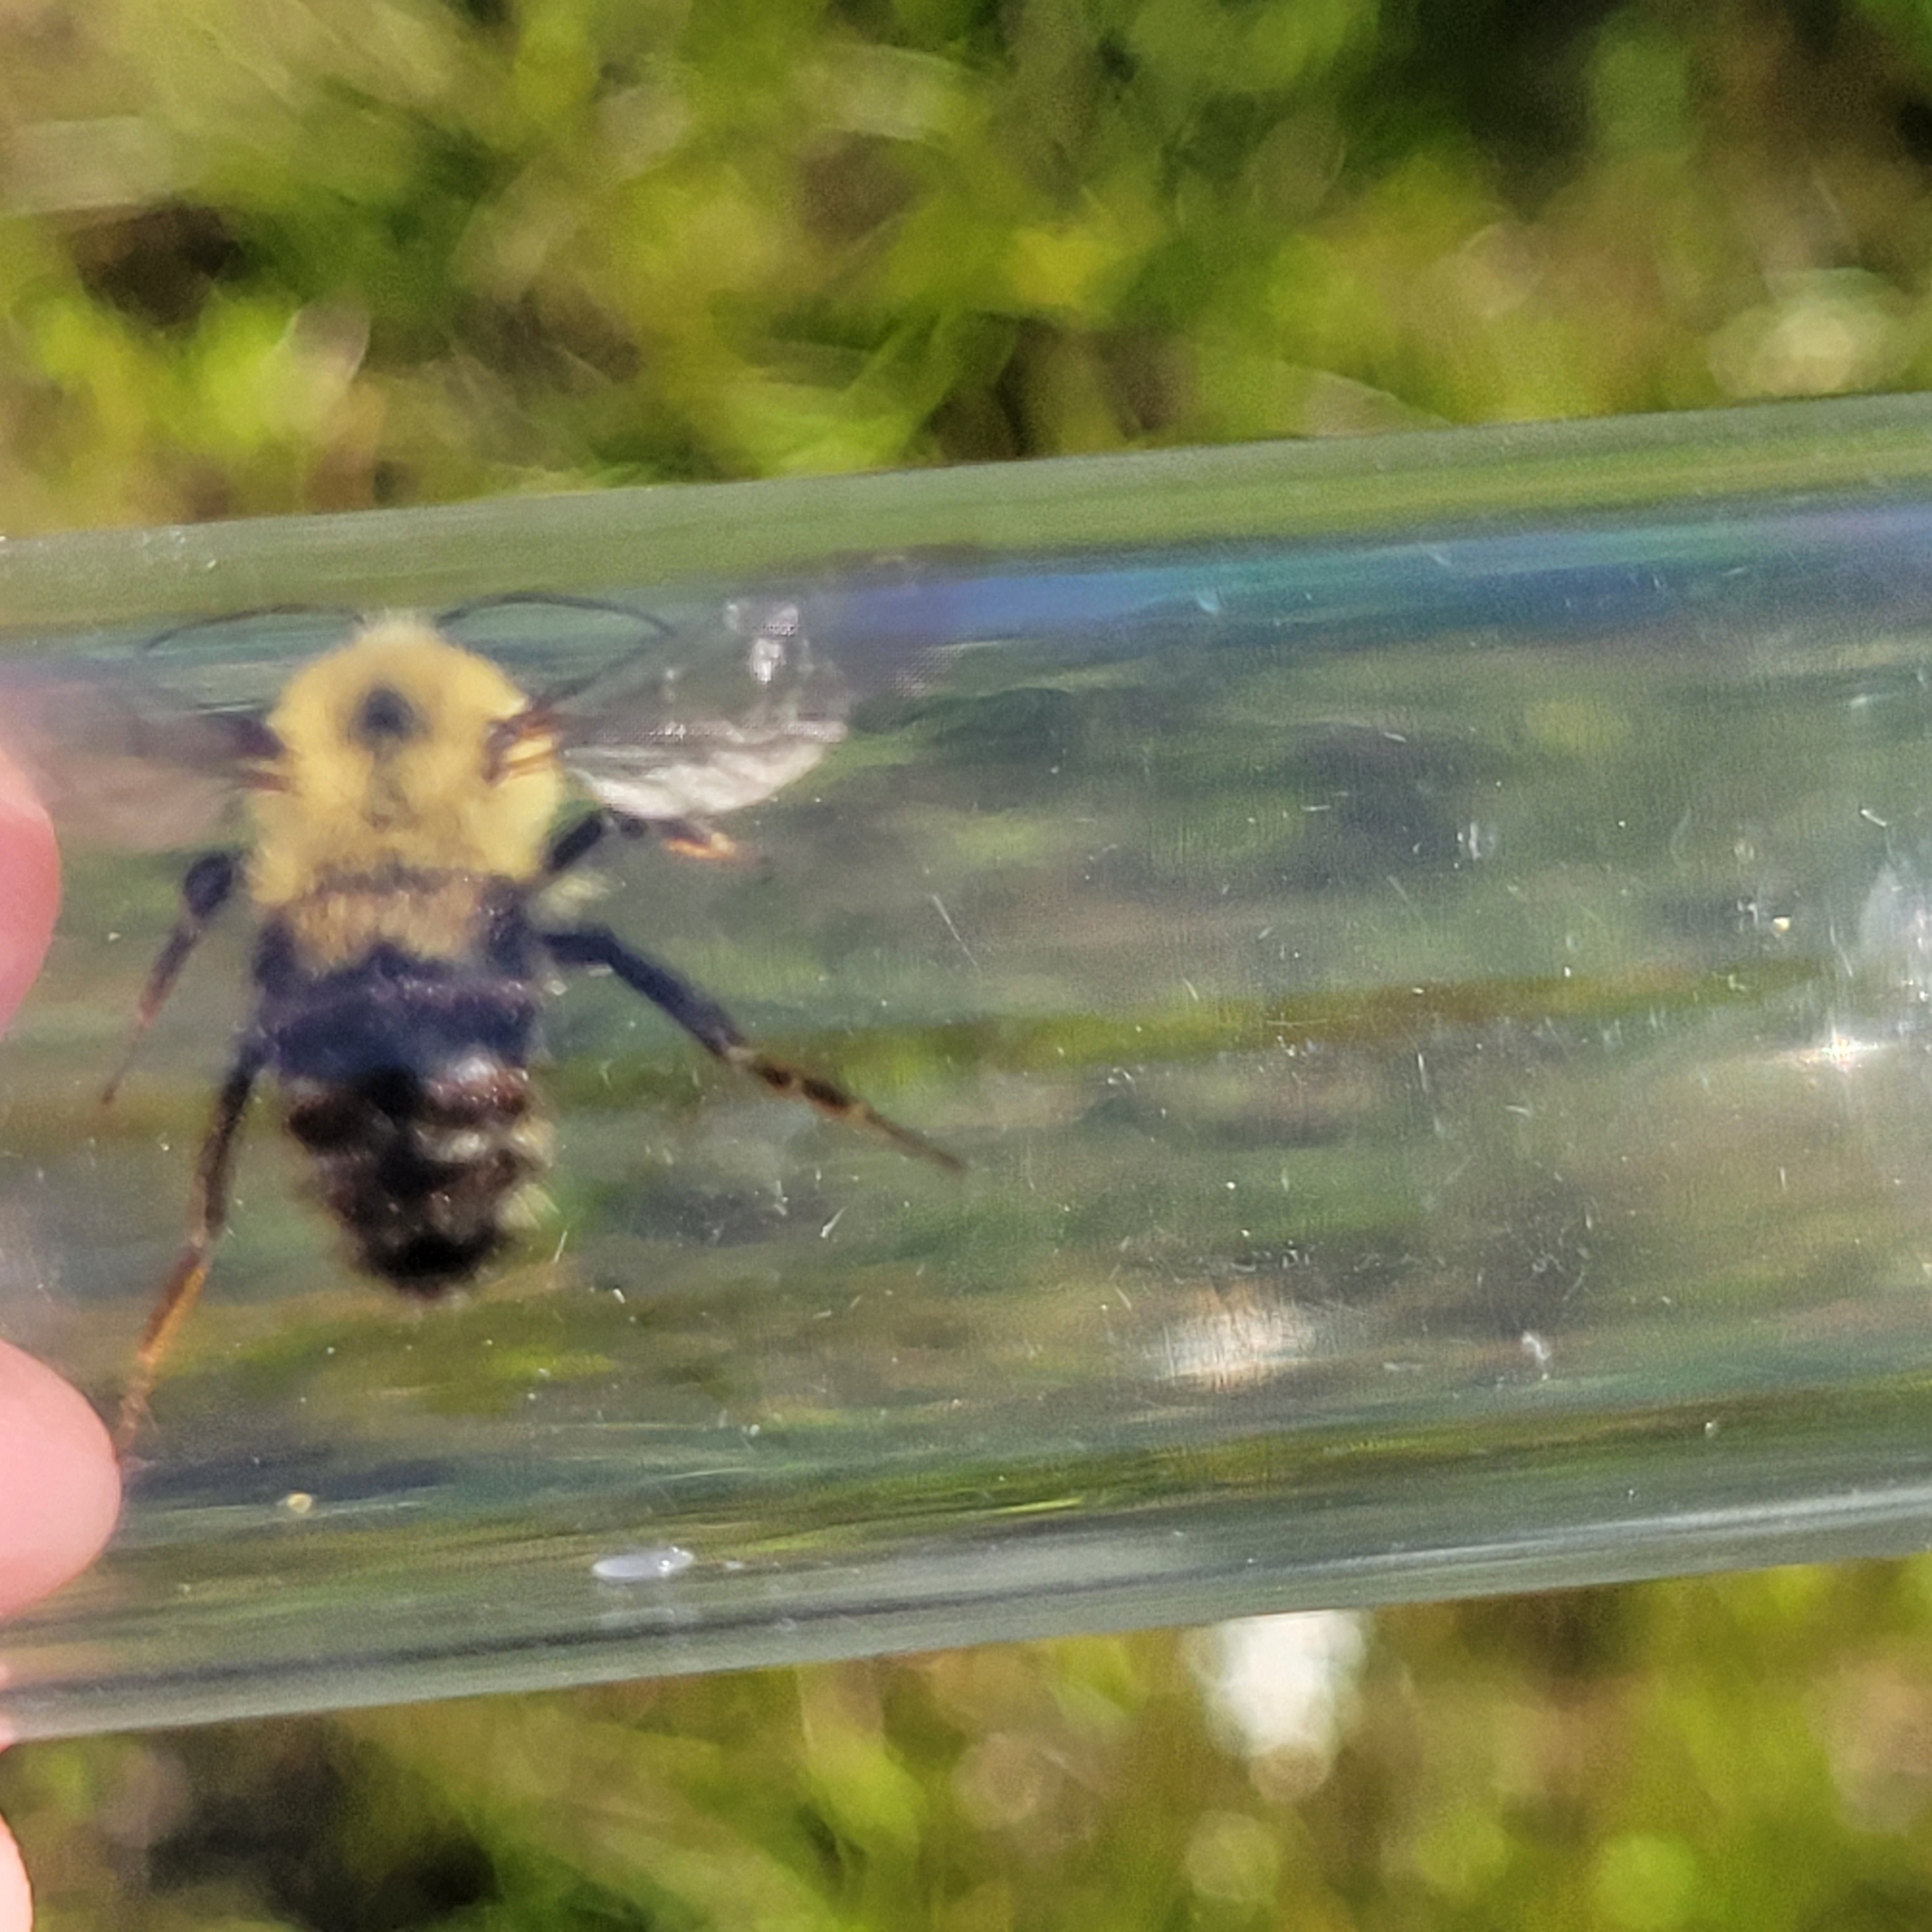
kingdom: Animalia
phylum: Arthropoda
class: Insecta
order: Hymenoptera
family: Apidae
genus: Bombus
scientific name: Bombus bimaculatus
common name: Two-spotted bumble bee
